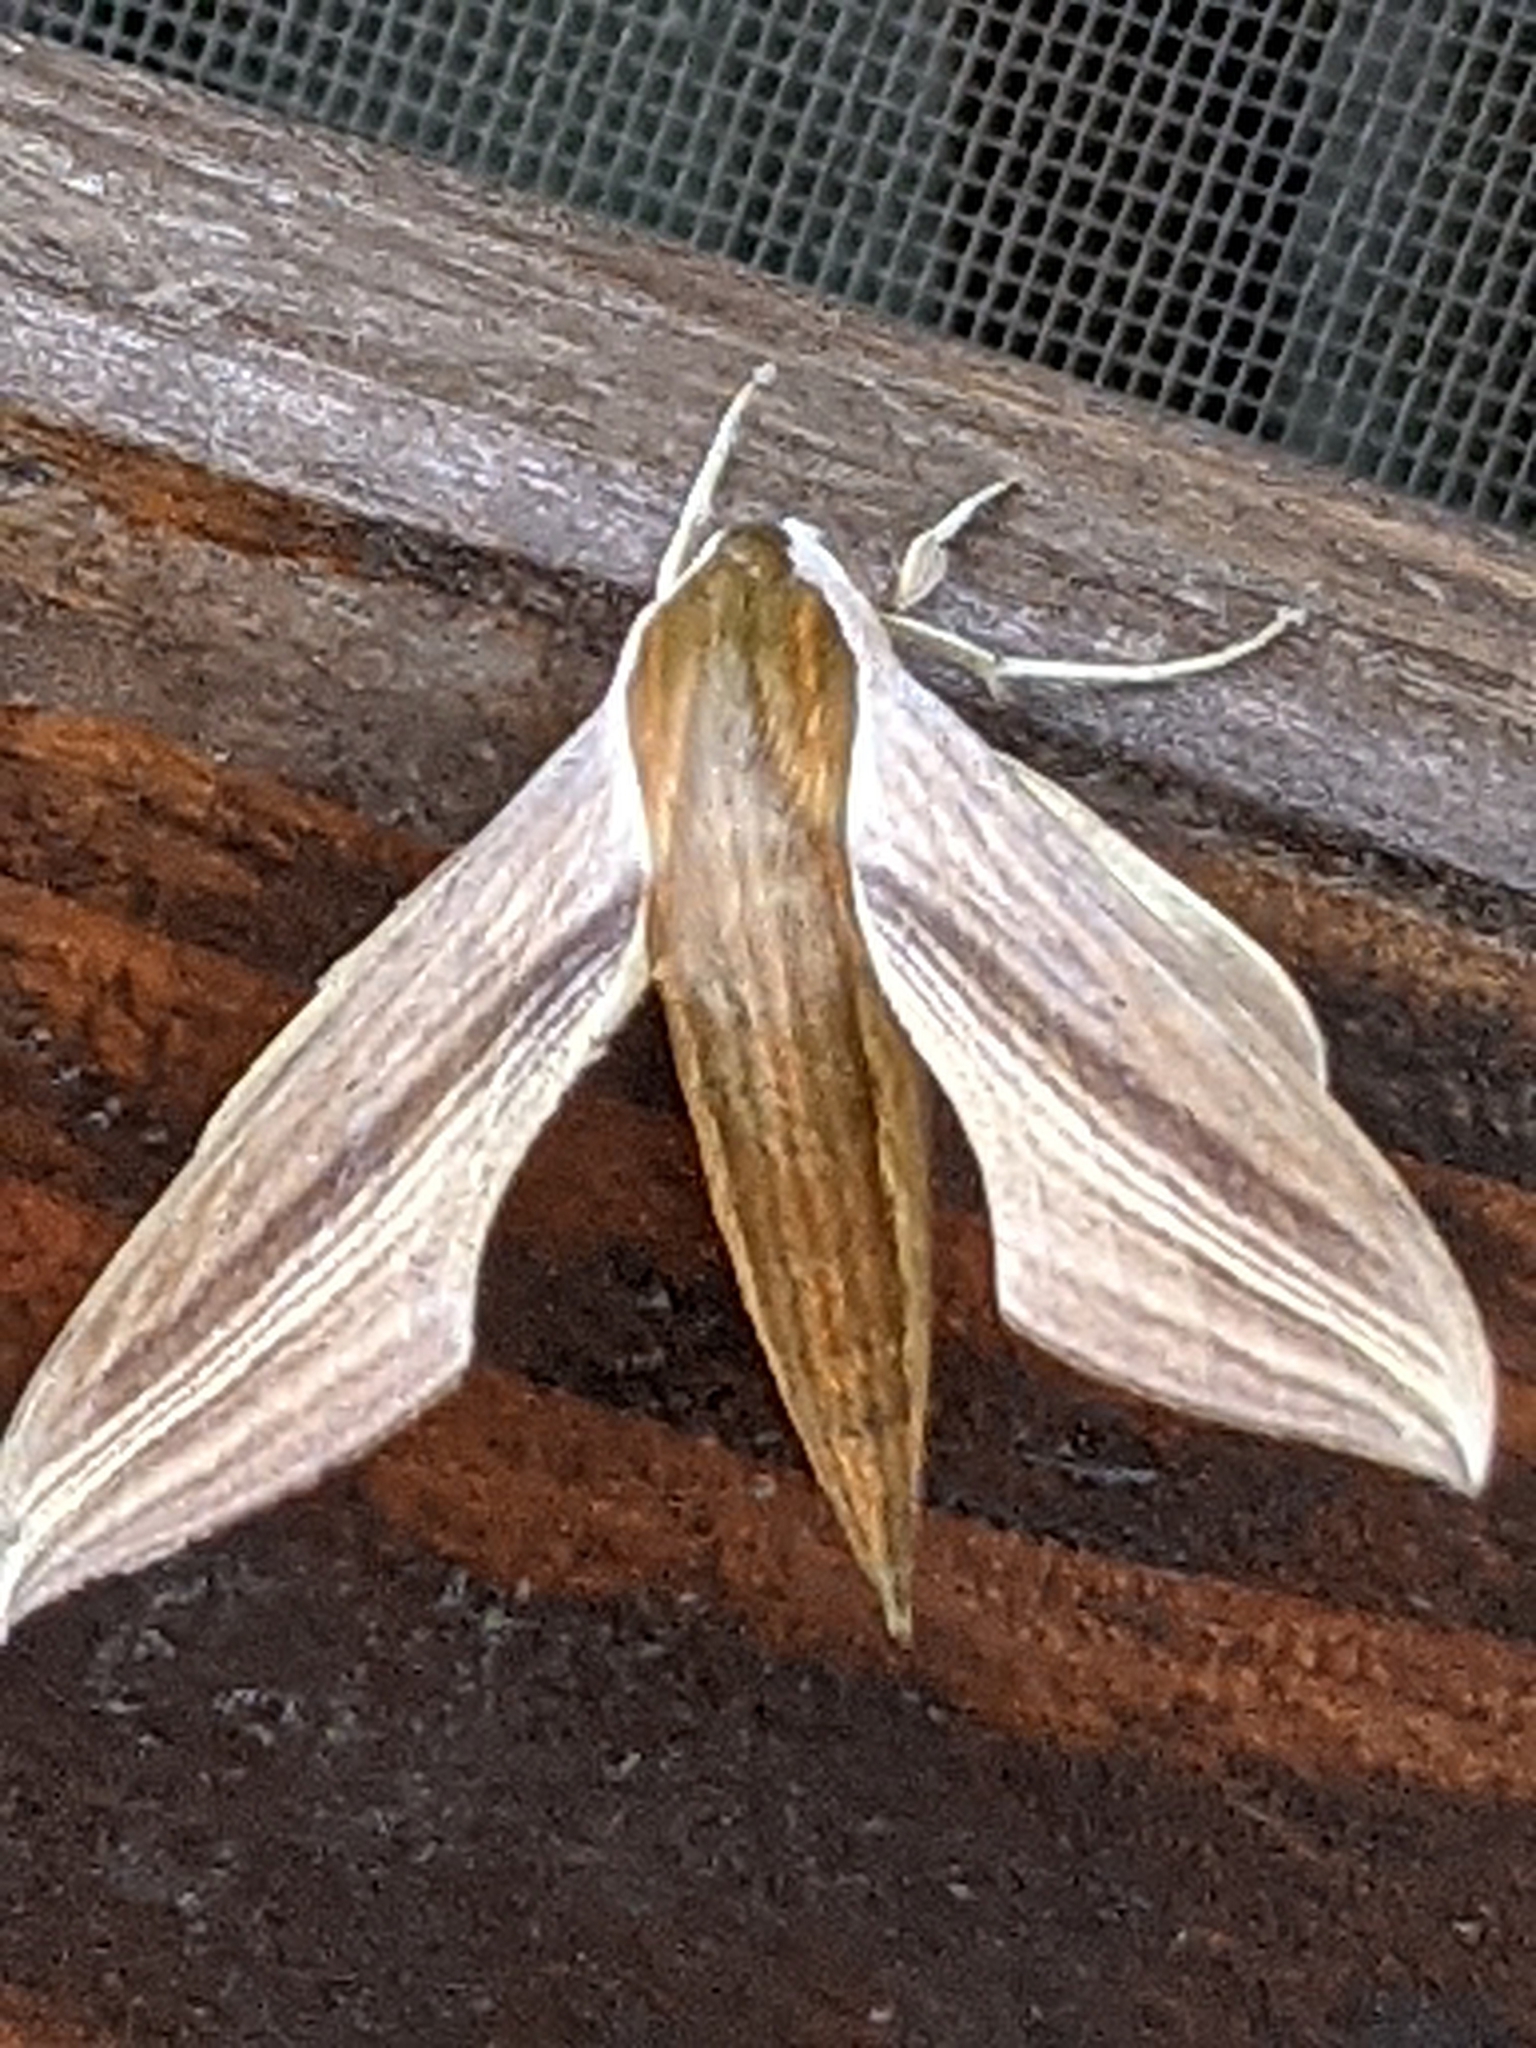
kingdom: Animalia
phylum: Arthropoda
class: Insecta
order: Lepidoptera
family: Sphingidae
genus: Xylophanes
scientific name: Xylophanes tersa
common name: Tersa sphinx
